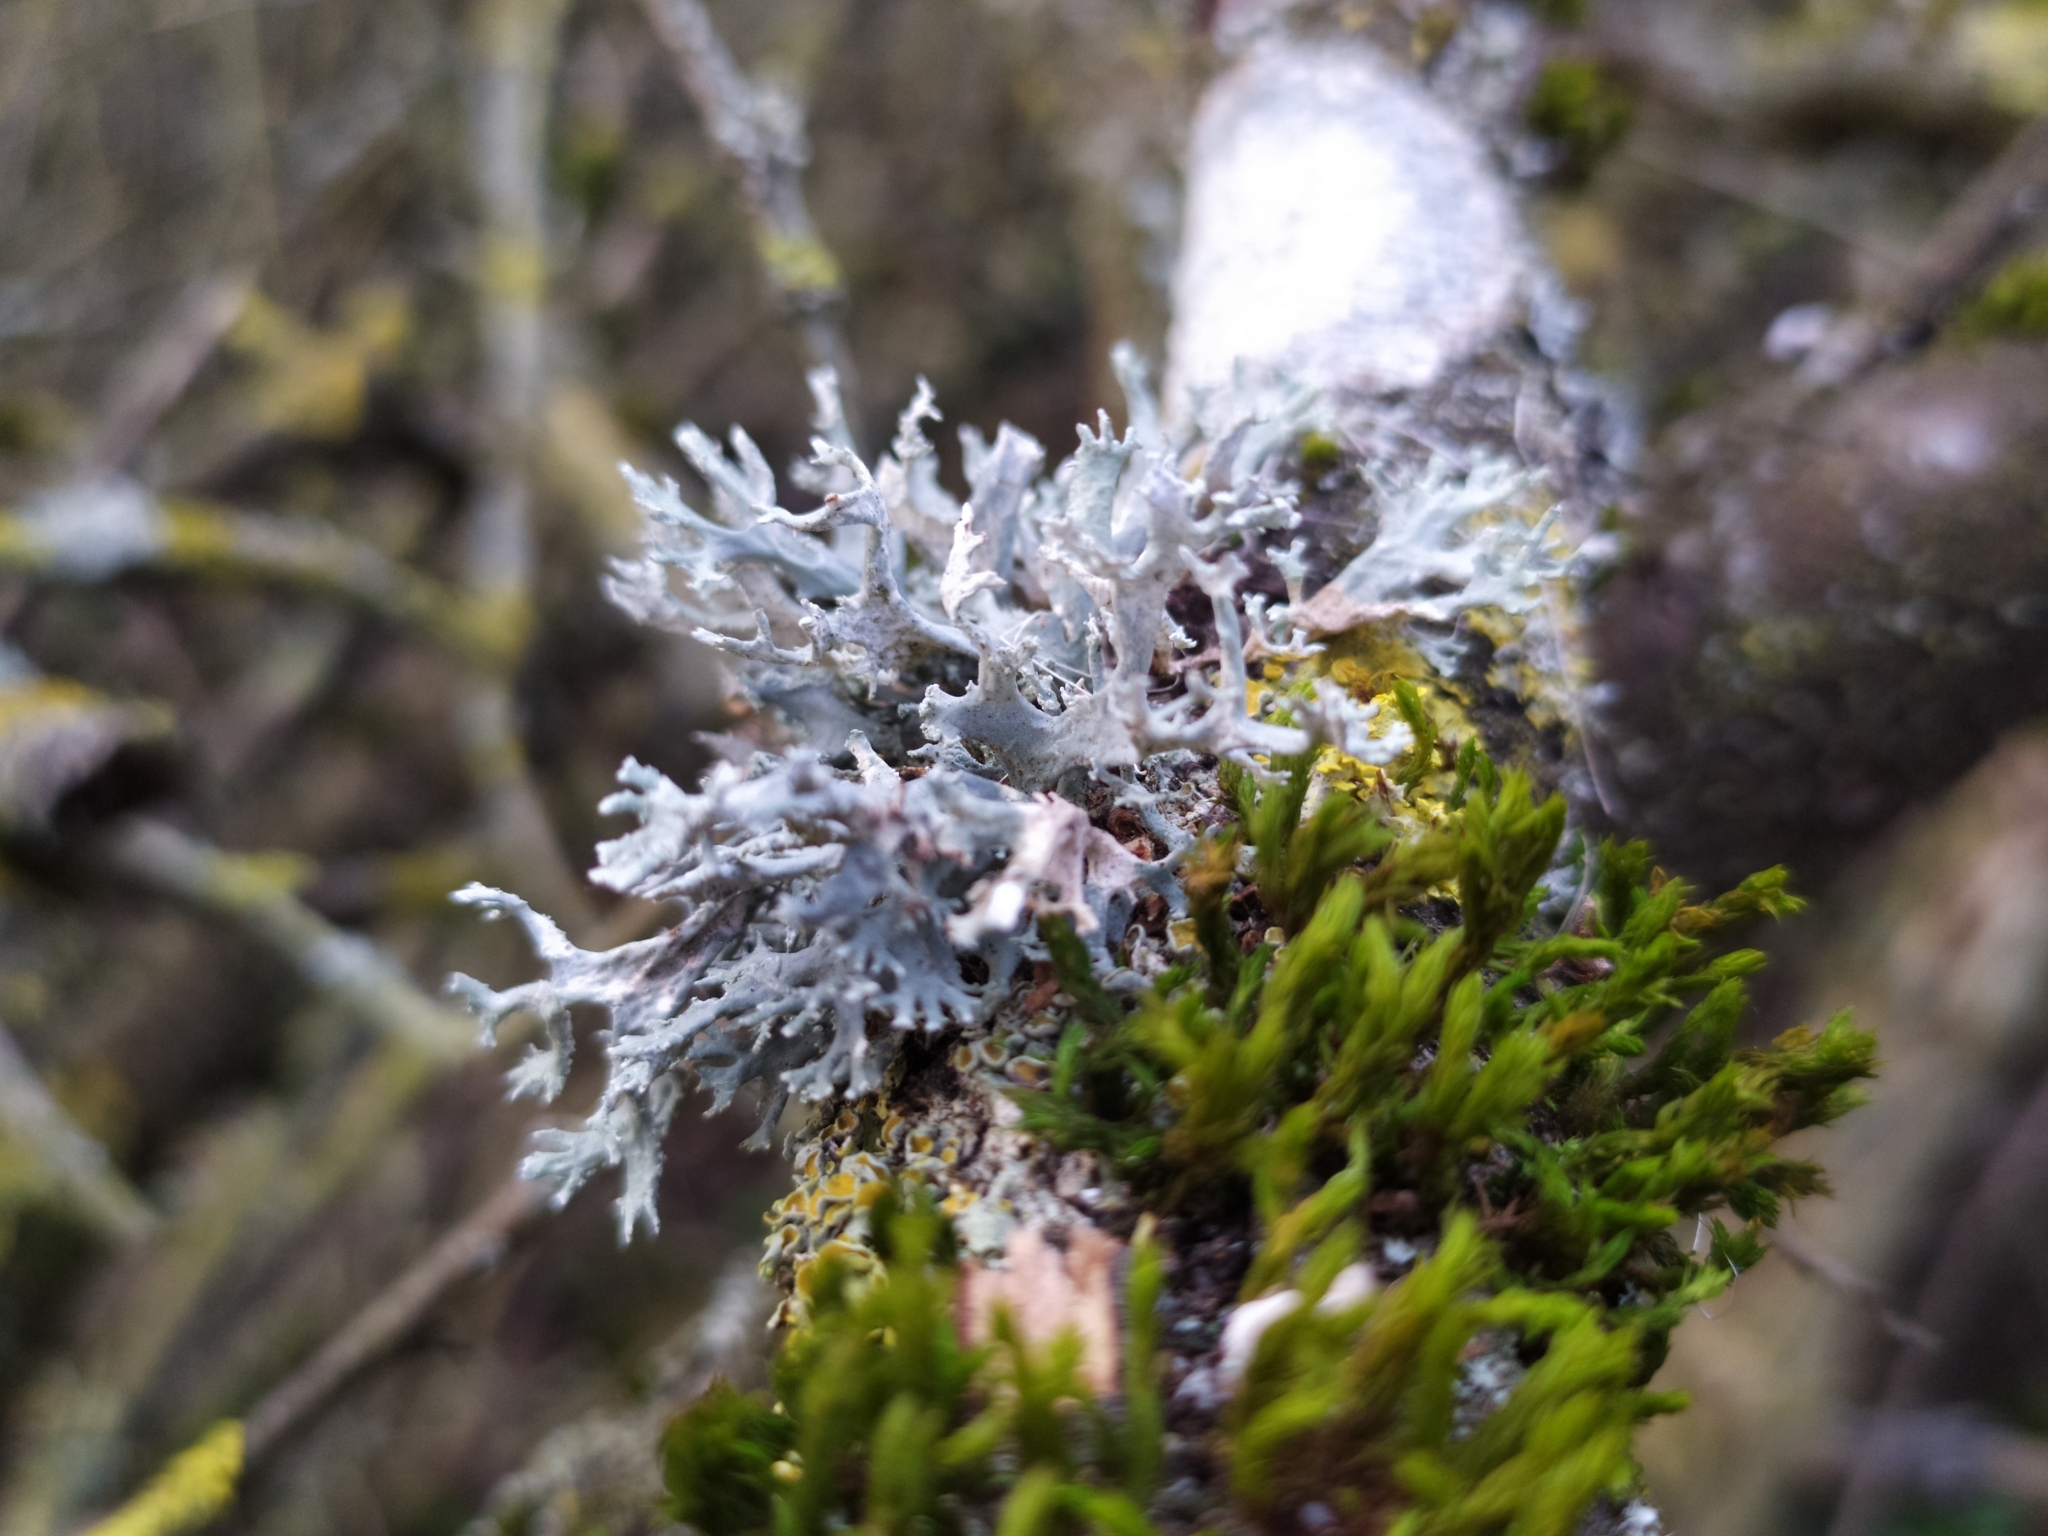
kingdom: Fungi
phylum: Ascomycota
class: Lecanoromycetes
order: Lecanorales
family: Parmeliaceae
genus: Evernia
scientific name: Evernia prunastri
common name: Oak moss
